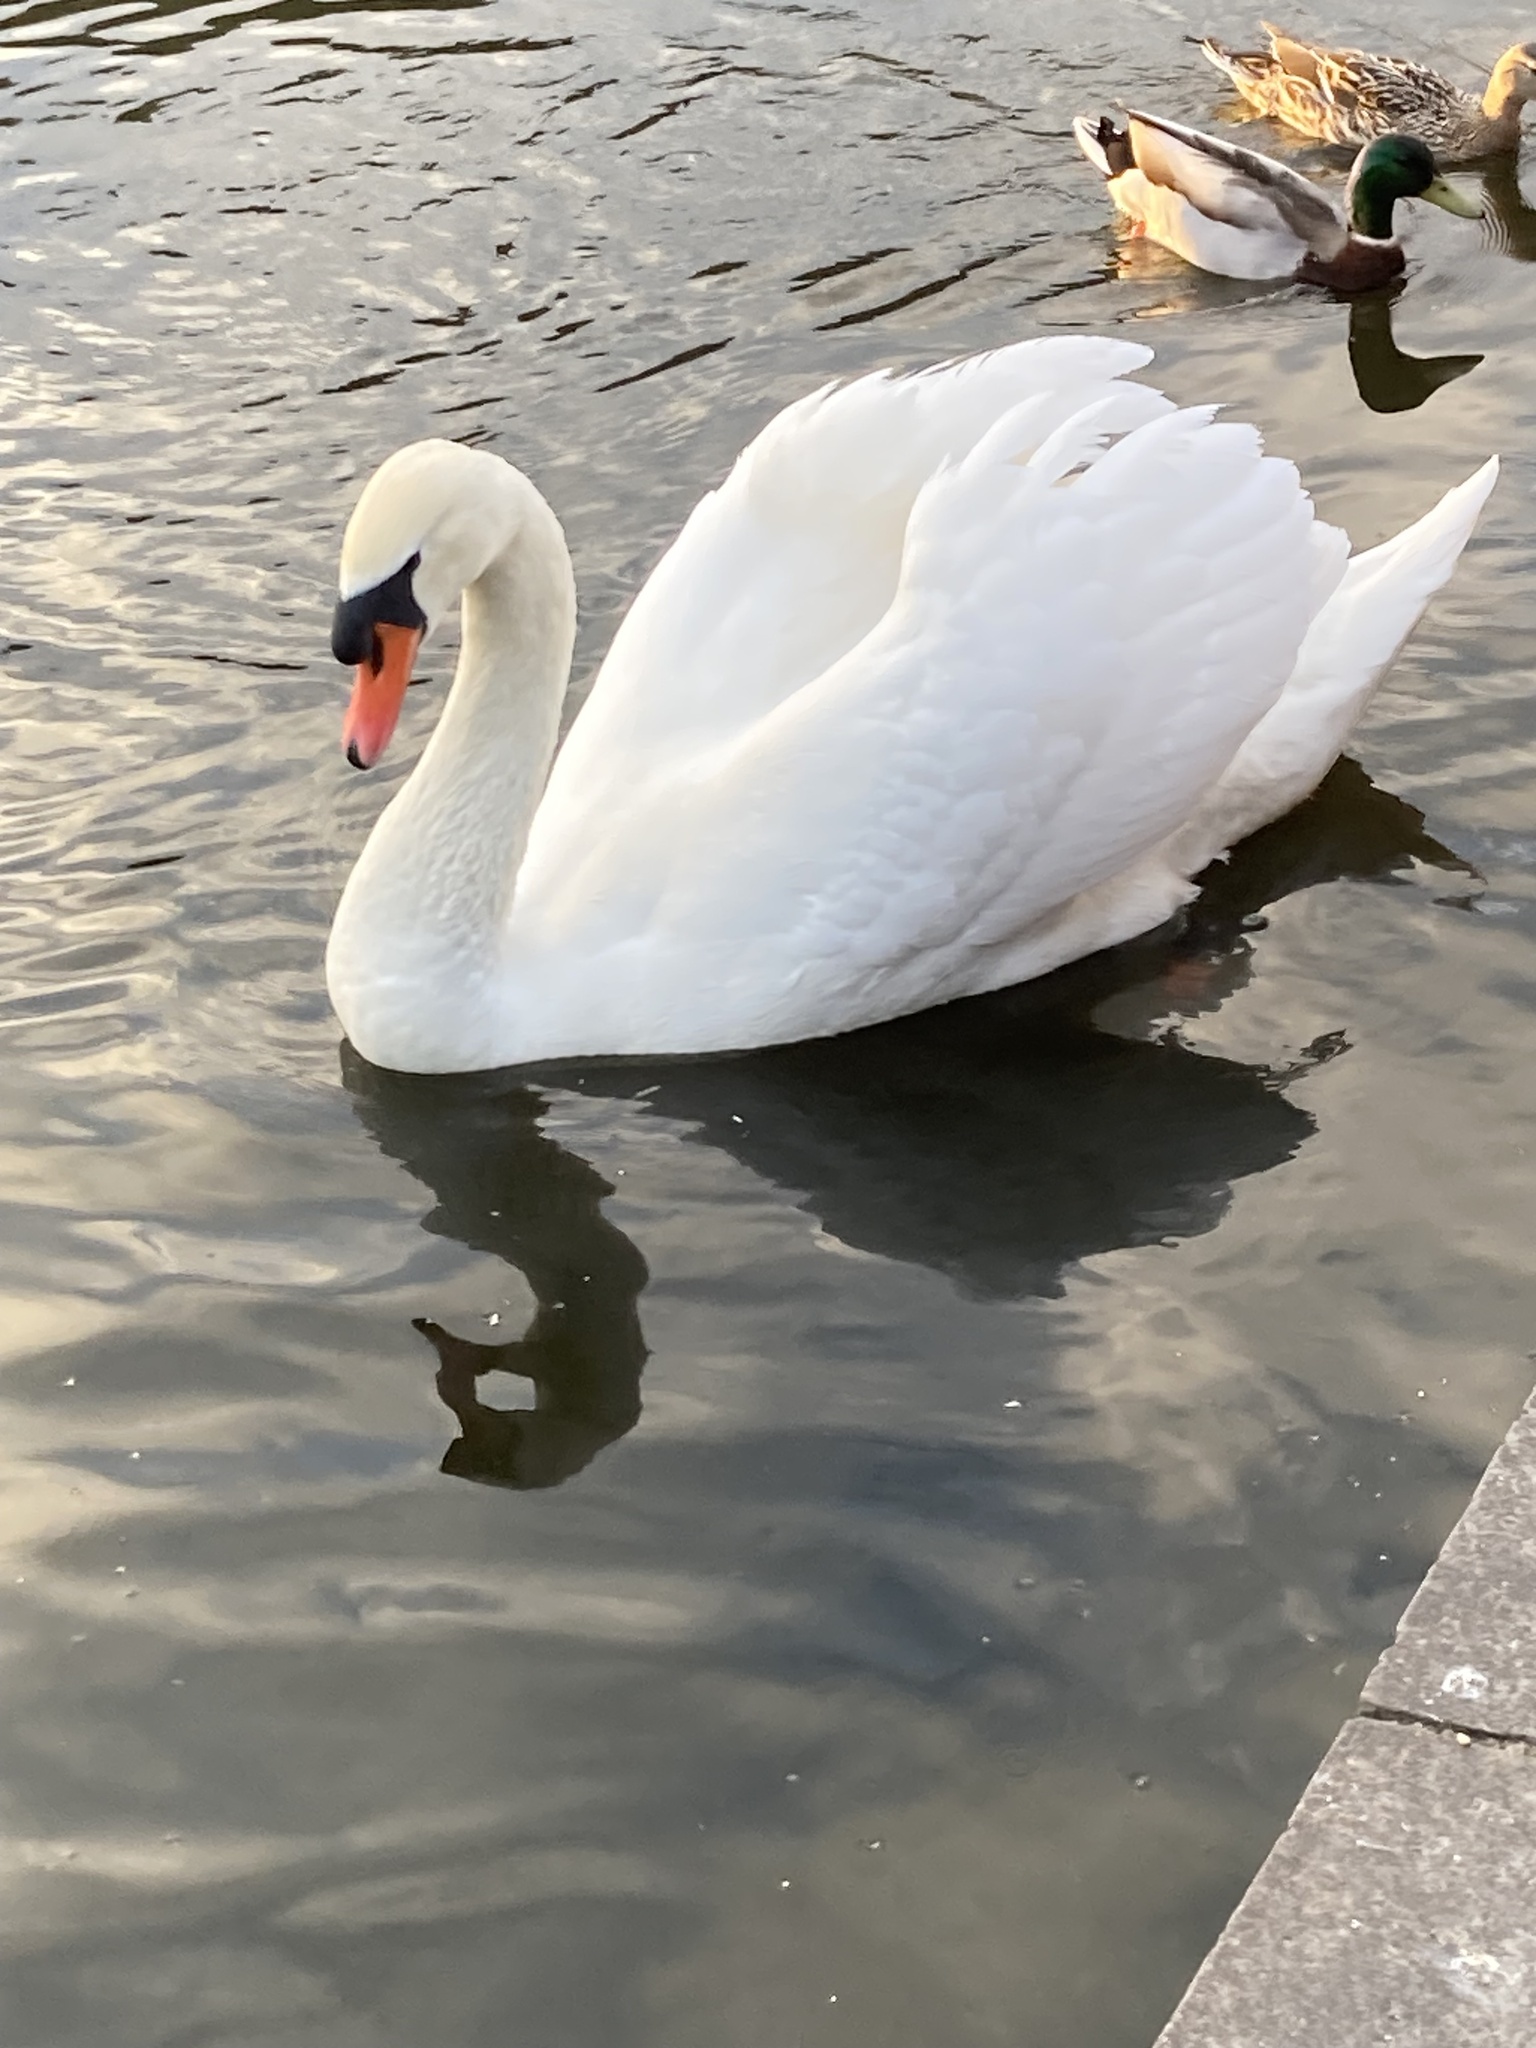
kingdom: Animalia
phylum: Chordata
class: Aves
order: Anseriformes
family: Anatidae
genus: Cygnus
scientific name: Cygnus olor
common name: Mute swan
